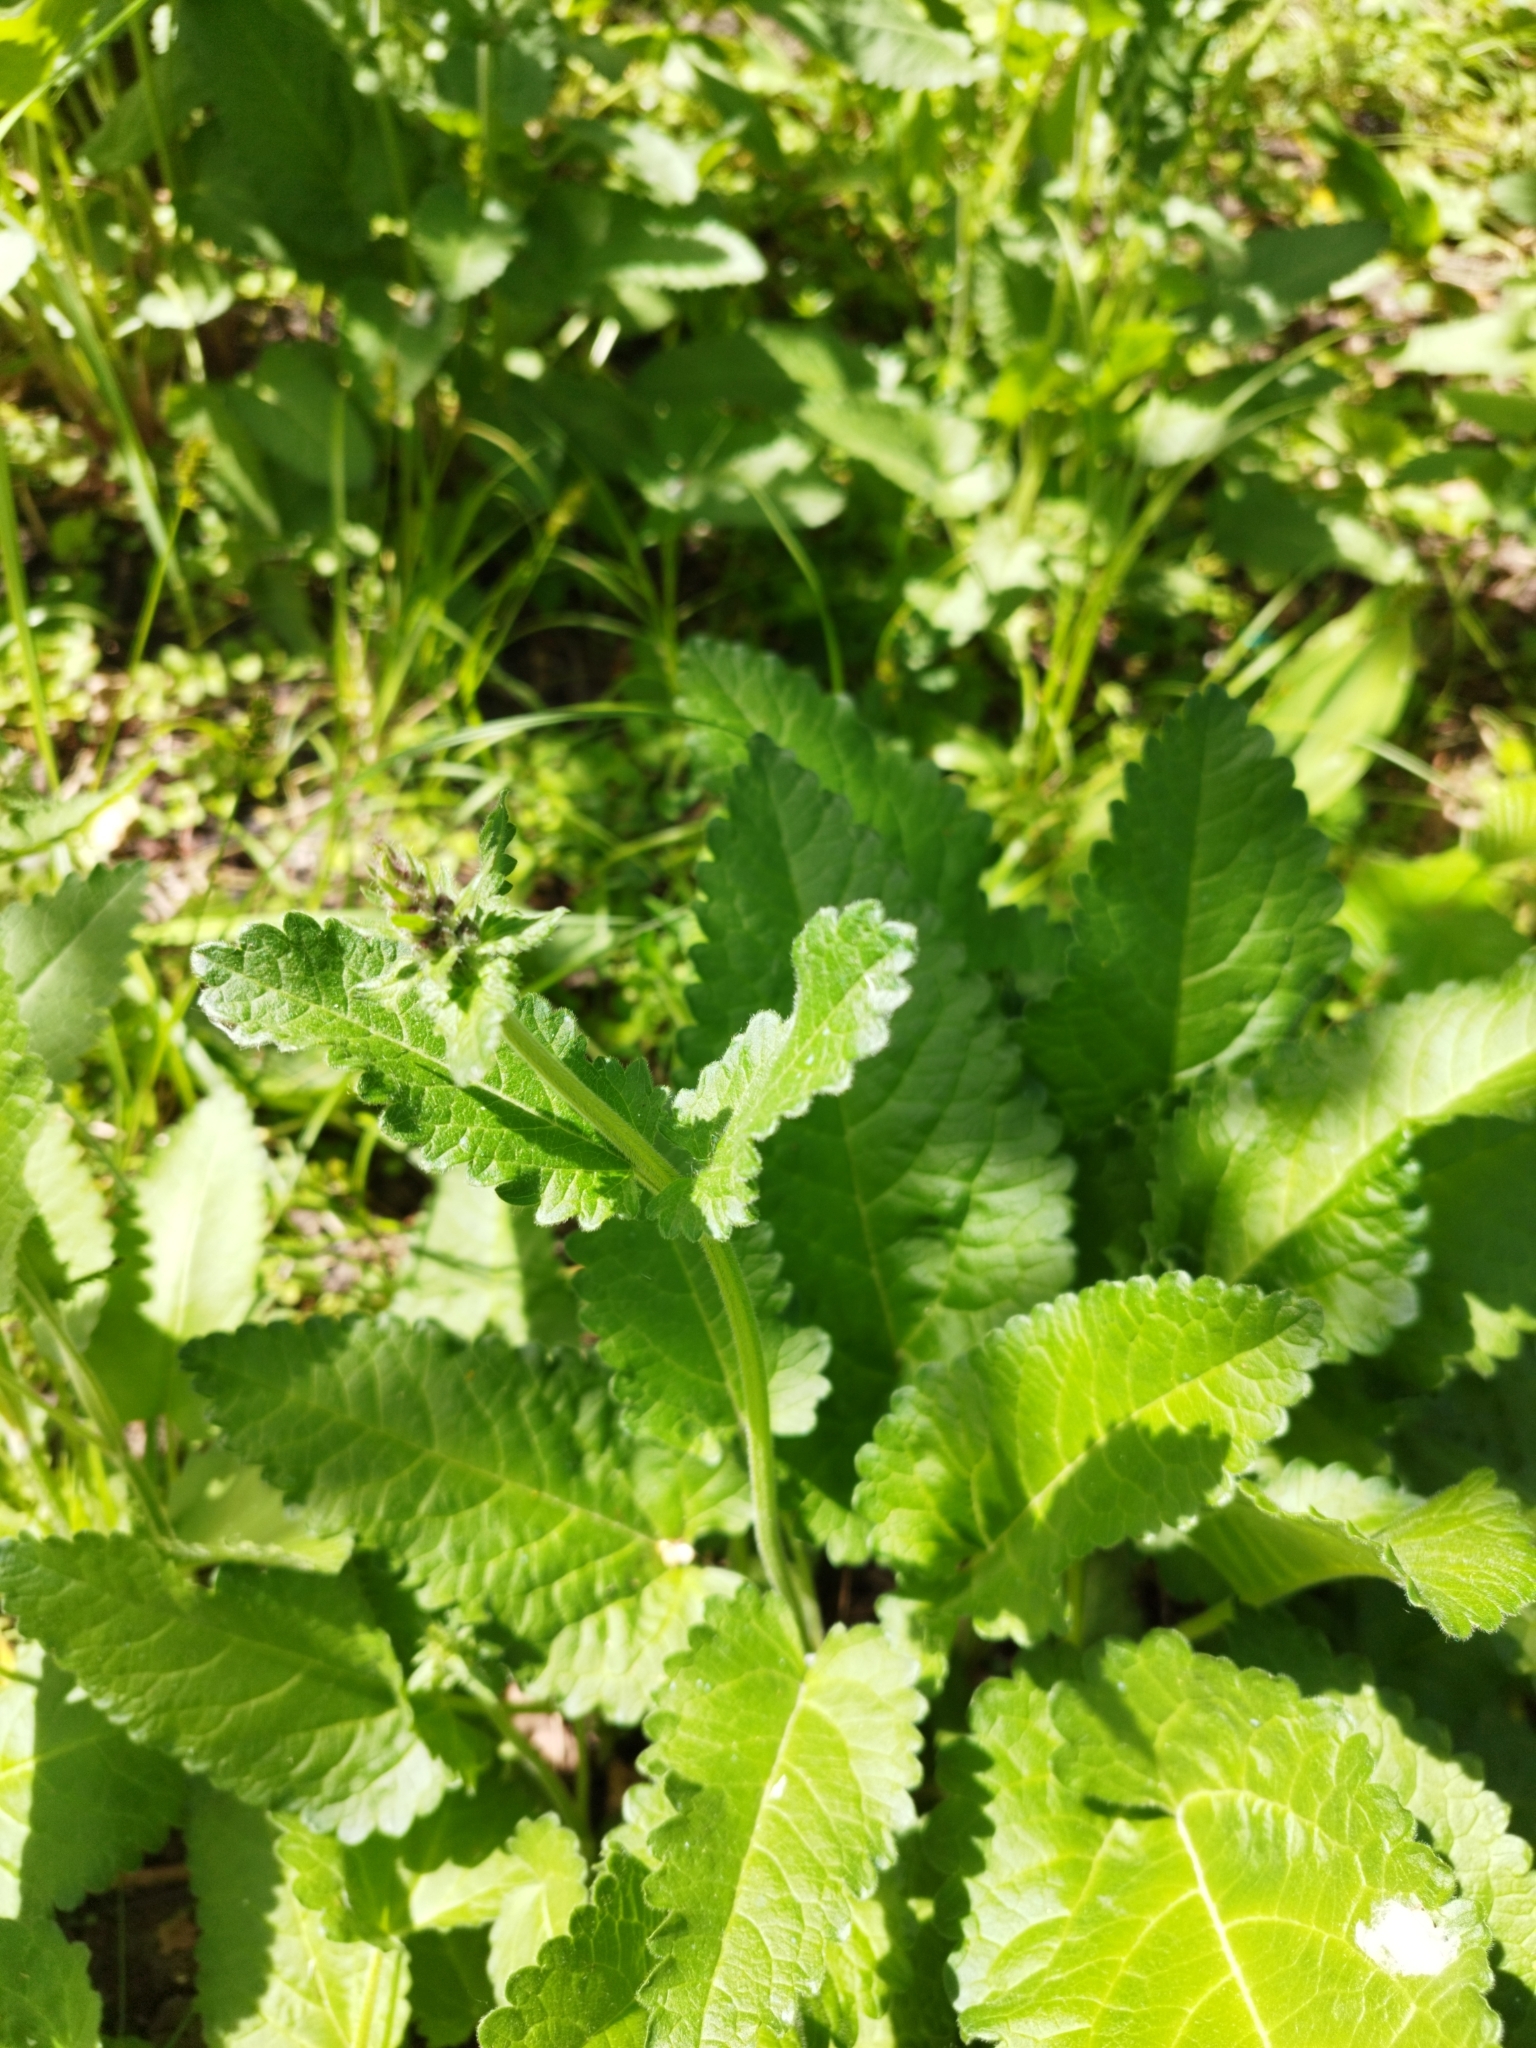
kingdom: Plantae
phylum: Tracheophyta
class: Magnoliopsida
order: Lamiales
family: Lamiaceae
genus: Betonica
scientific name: Betonica officinalis
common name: Bishop's-wort
